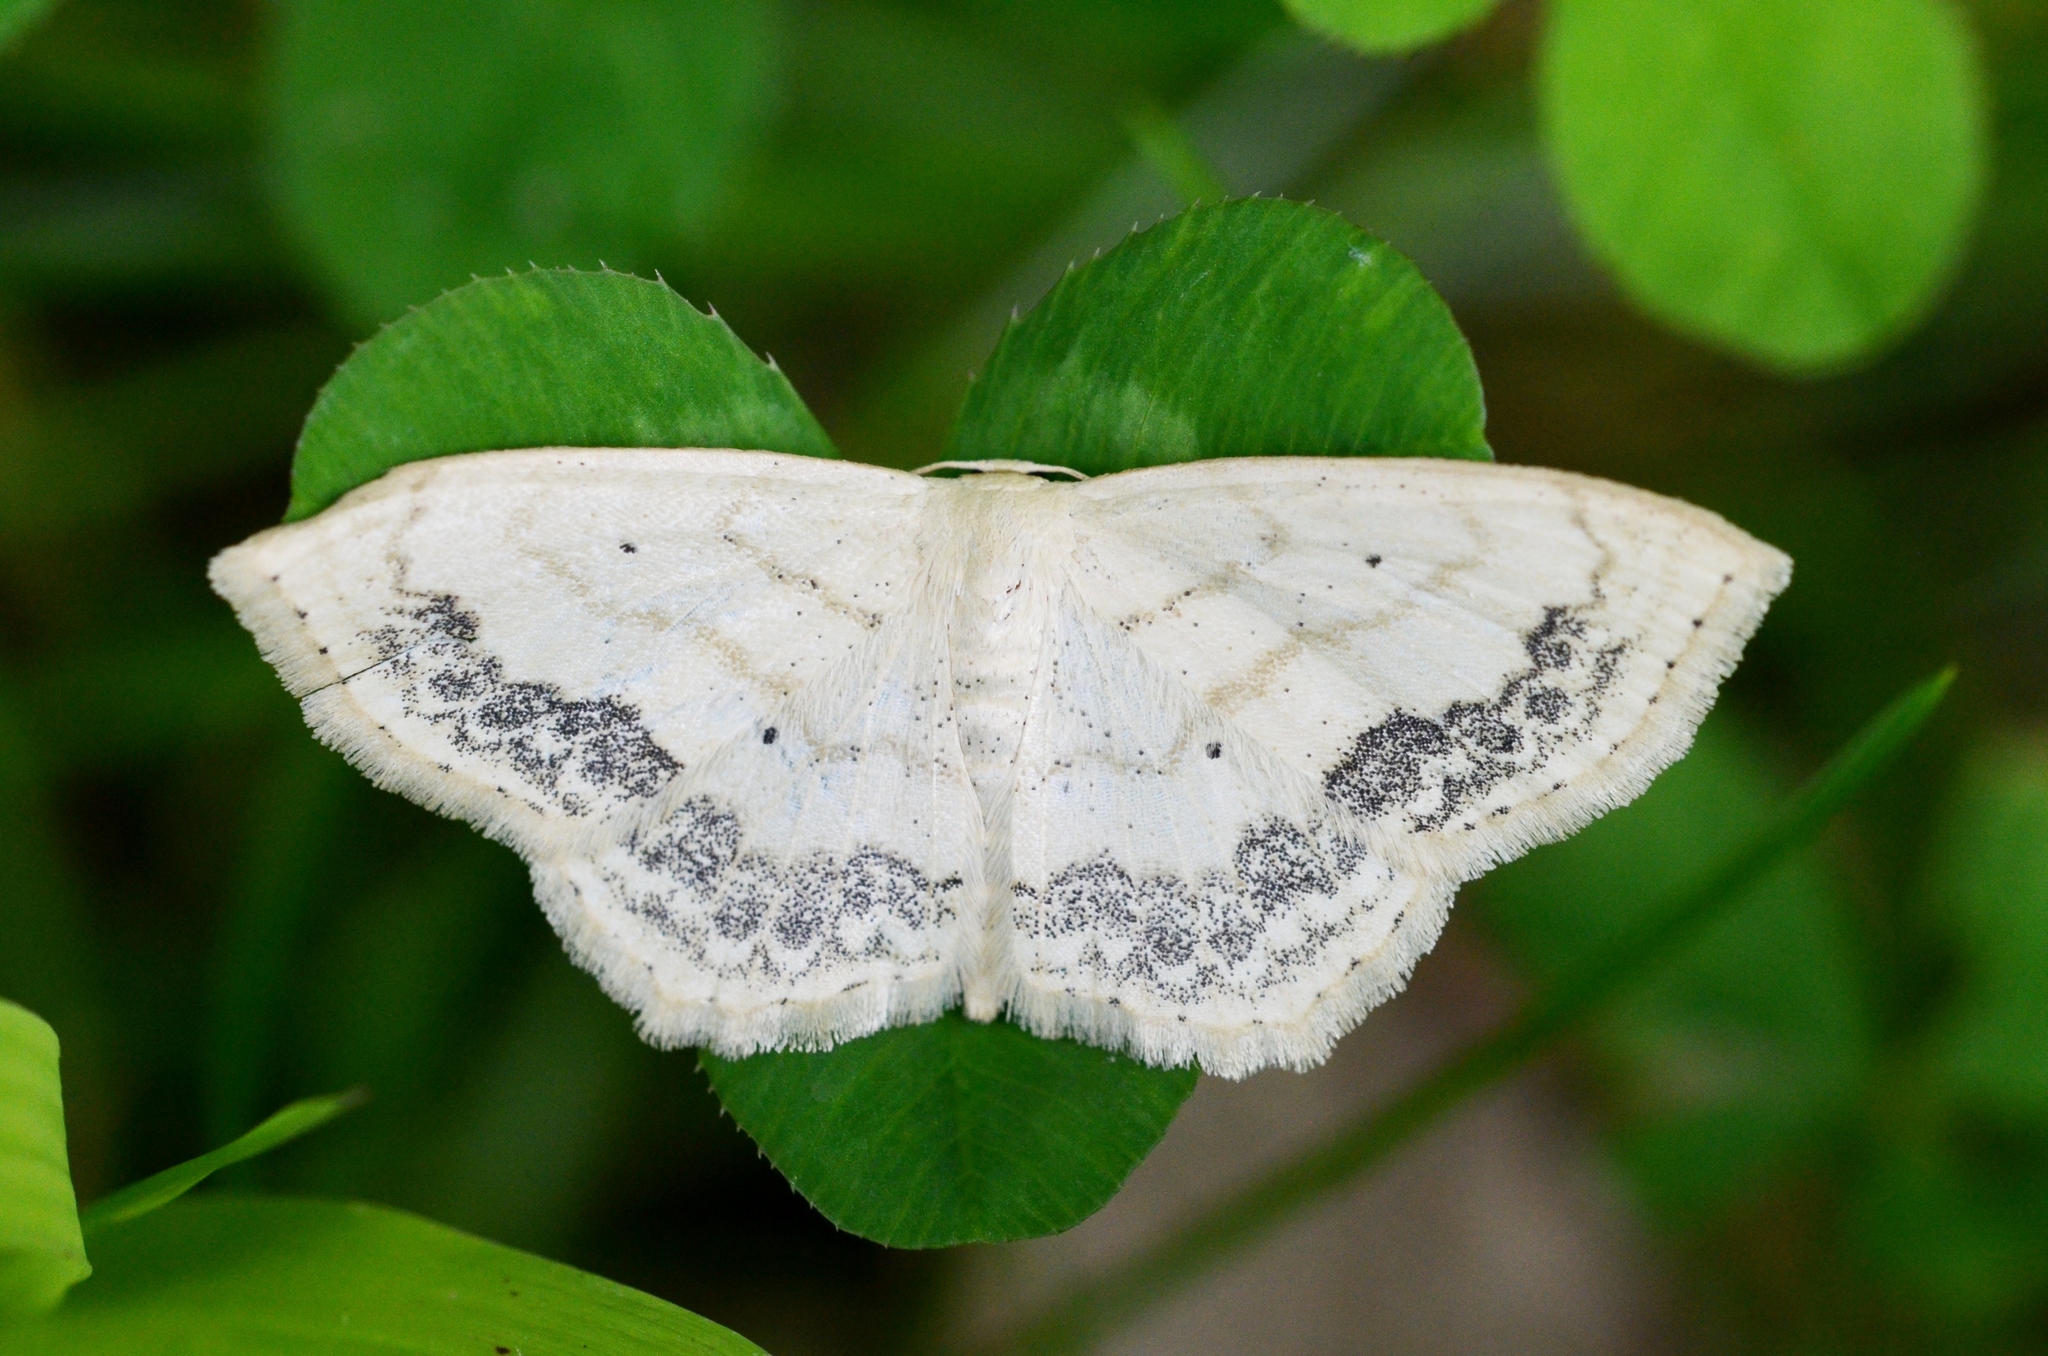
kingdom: Animalia
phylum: Arthropoda
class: Insecta
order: Lepidoptera
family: Geometridae
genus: Scopula
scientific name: Scopula limboundata
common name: Large lace border
